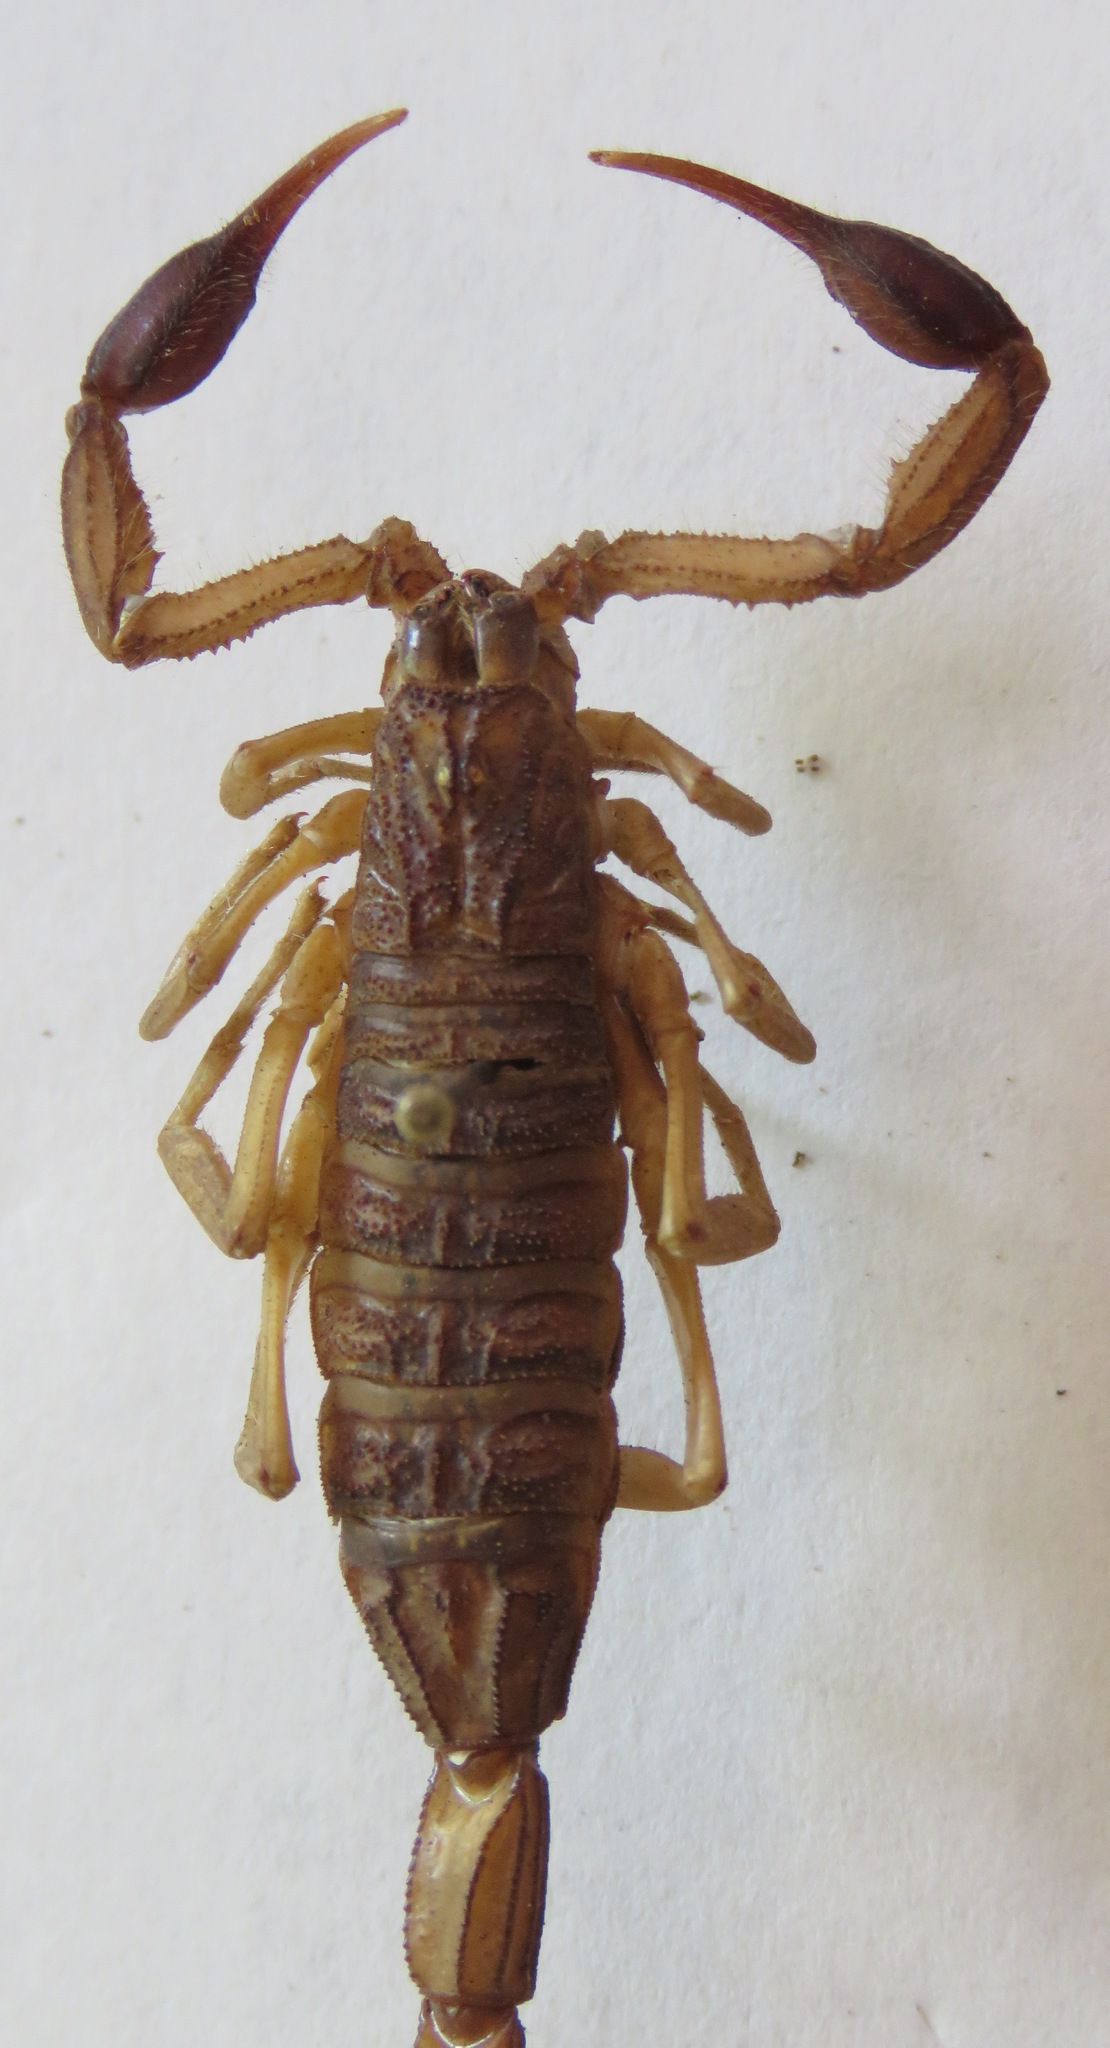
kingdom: Animalia
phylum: Arthropoda
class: Arachnida
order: Scorpiones
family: Buthidae
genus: Centruroides
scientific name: Centruroides edwardsii
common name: Scorpions
